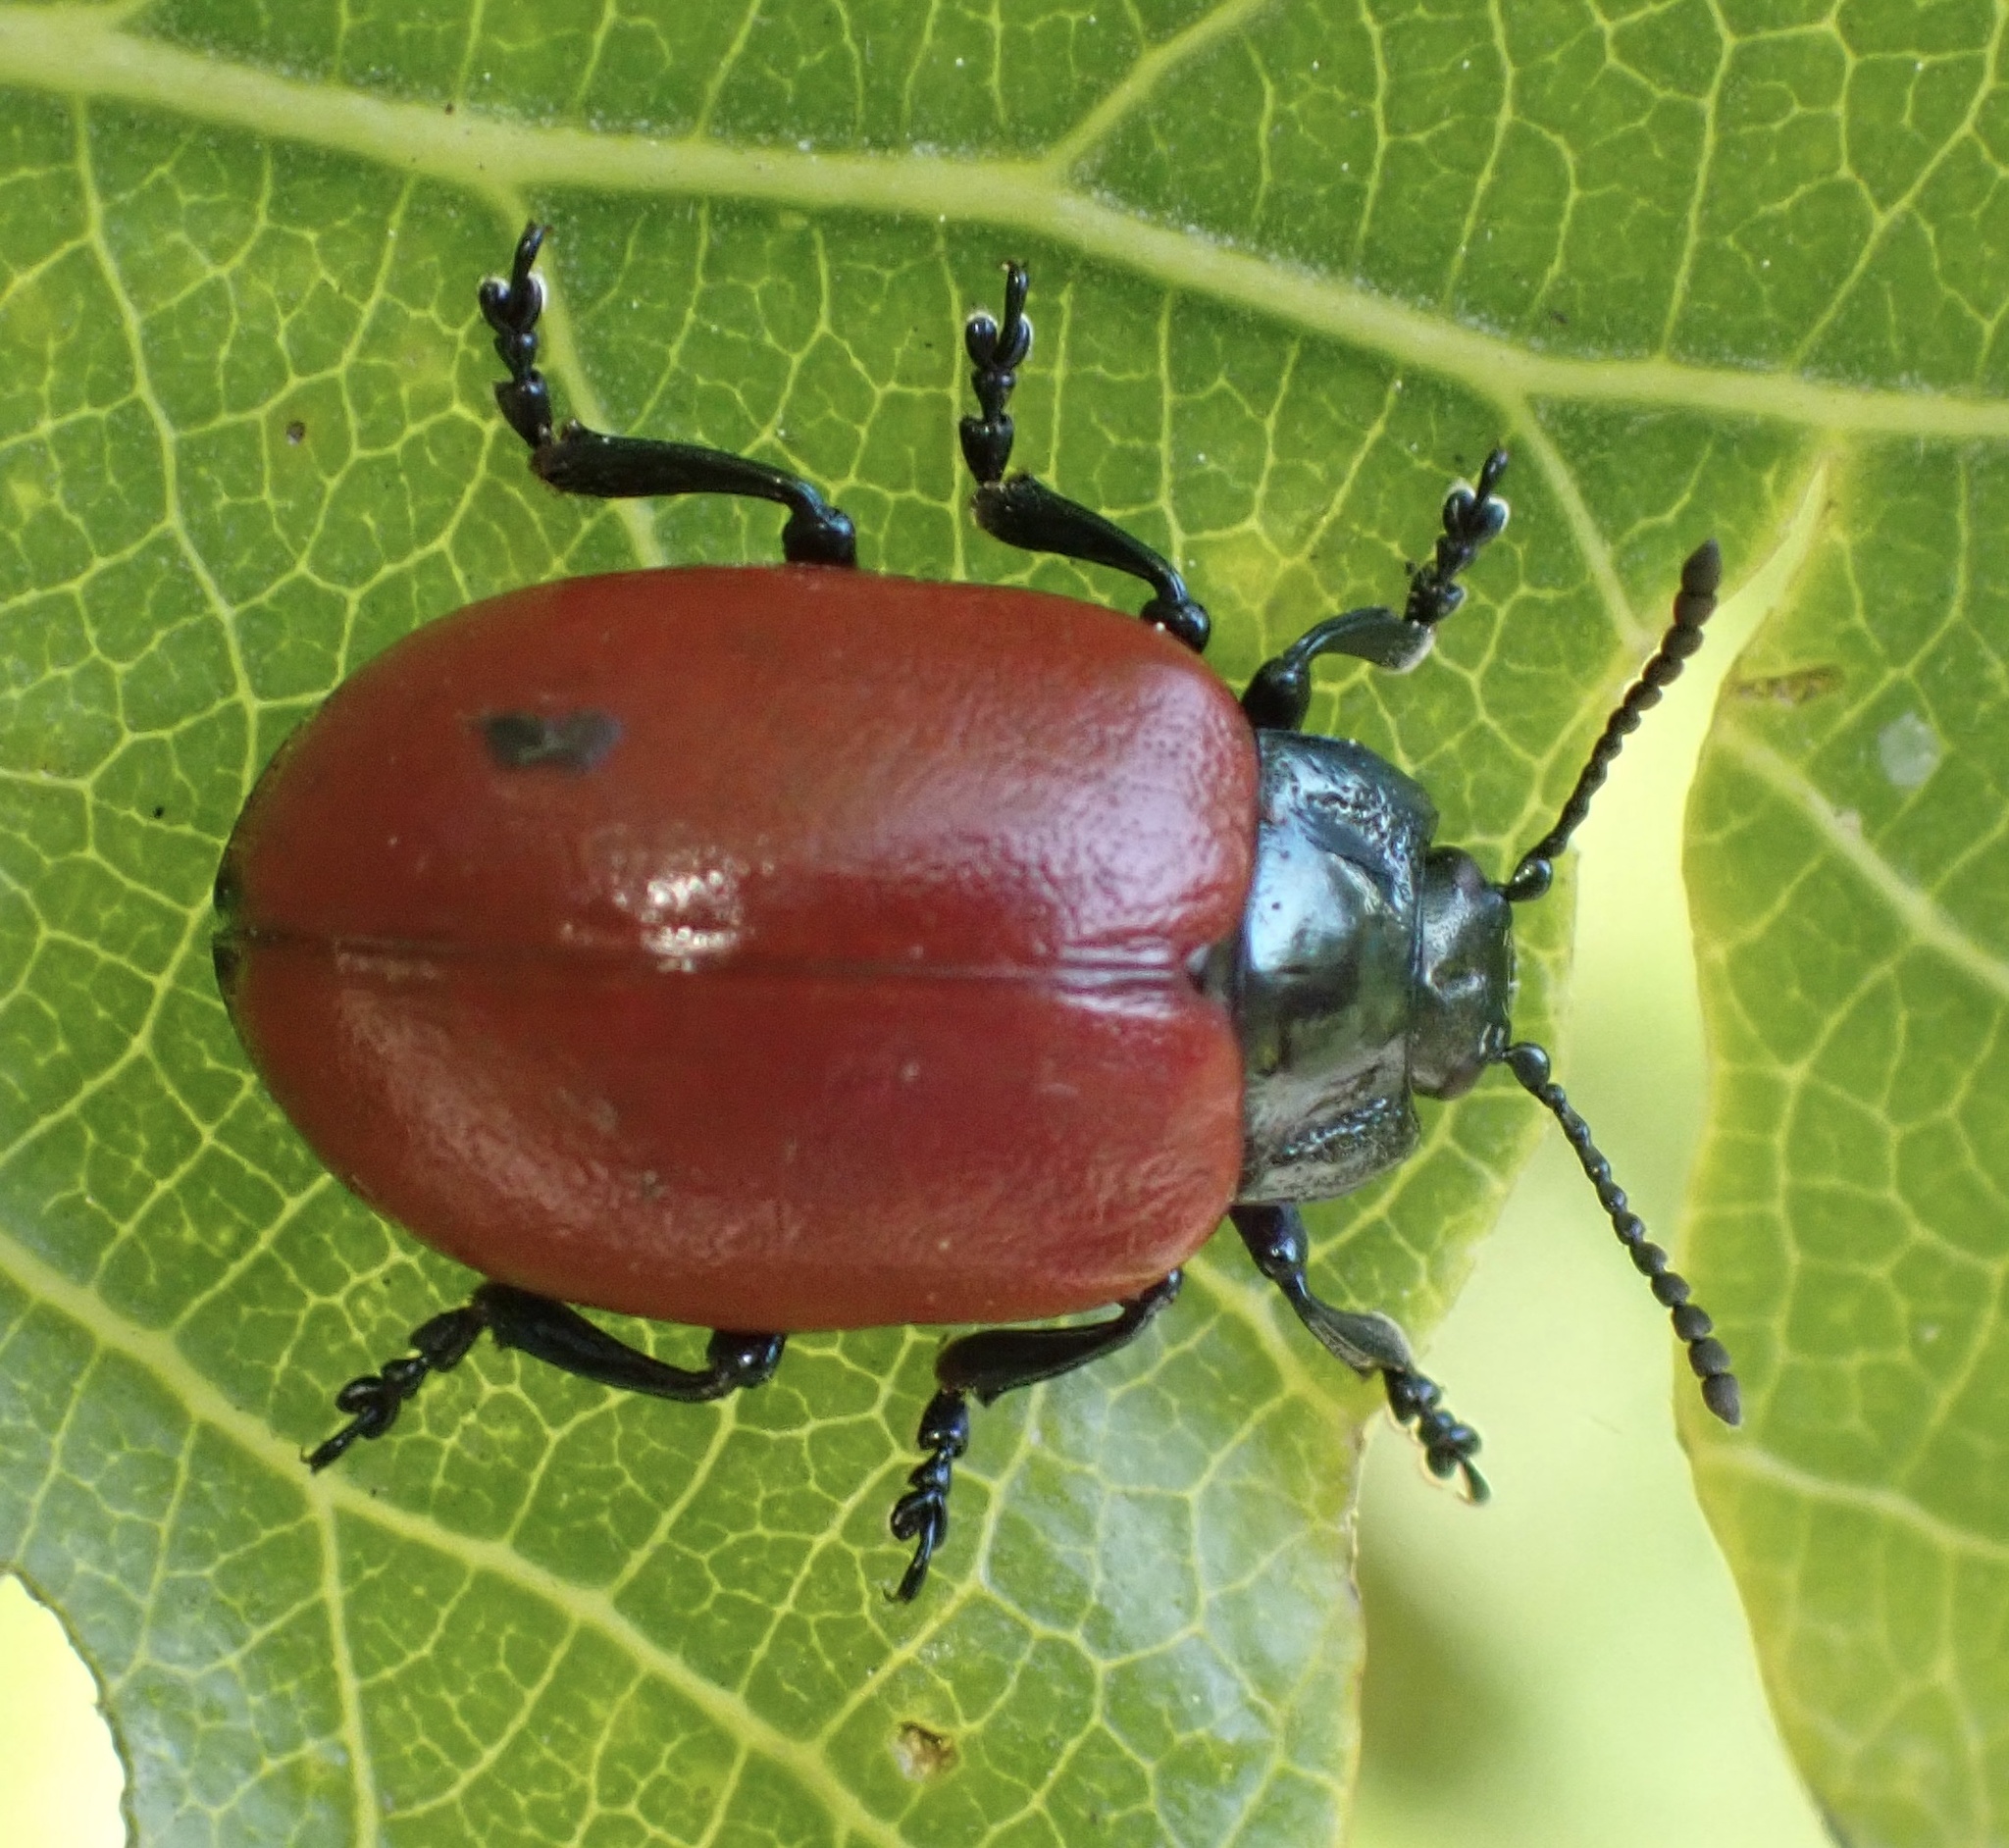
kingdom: Animalia
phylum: Arthropoda
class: Insecta
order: Coleoptera
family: Chrysomelidae
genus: Chrysomela
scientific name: Chrysomela populi
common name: Red poplar leaf beetle
